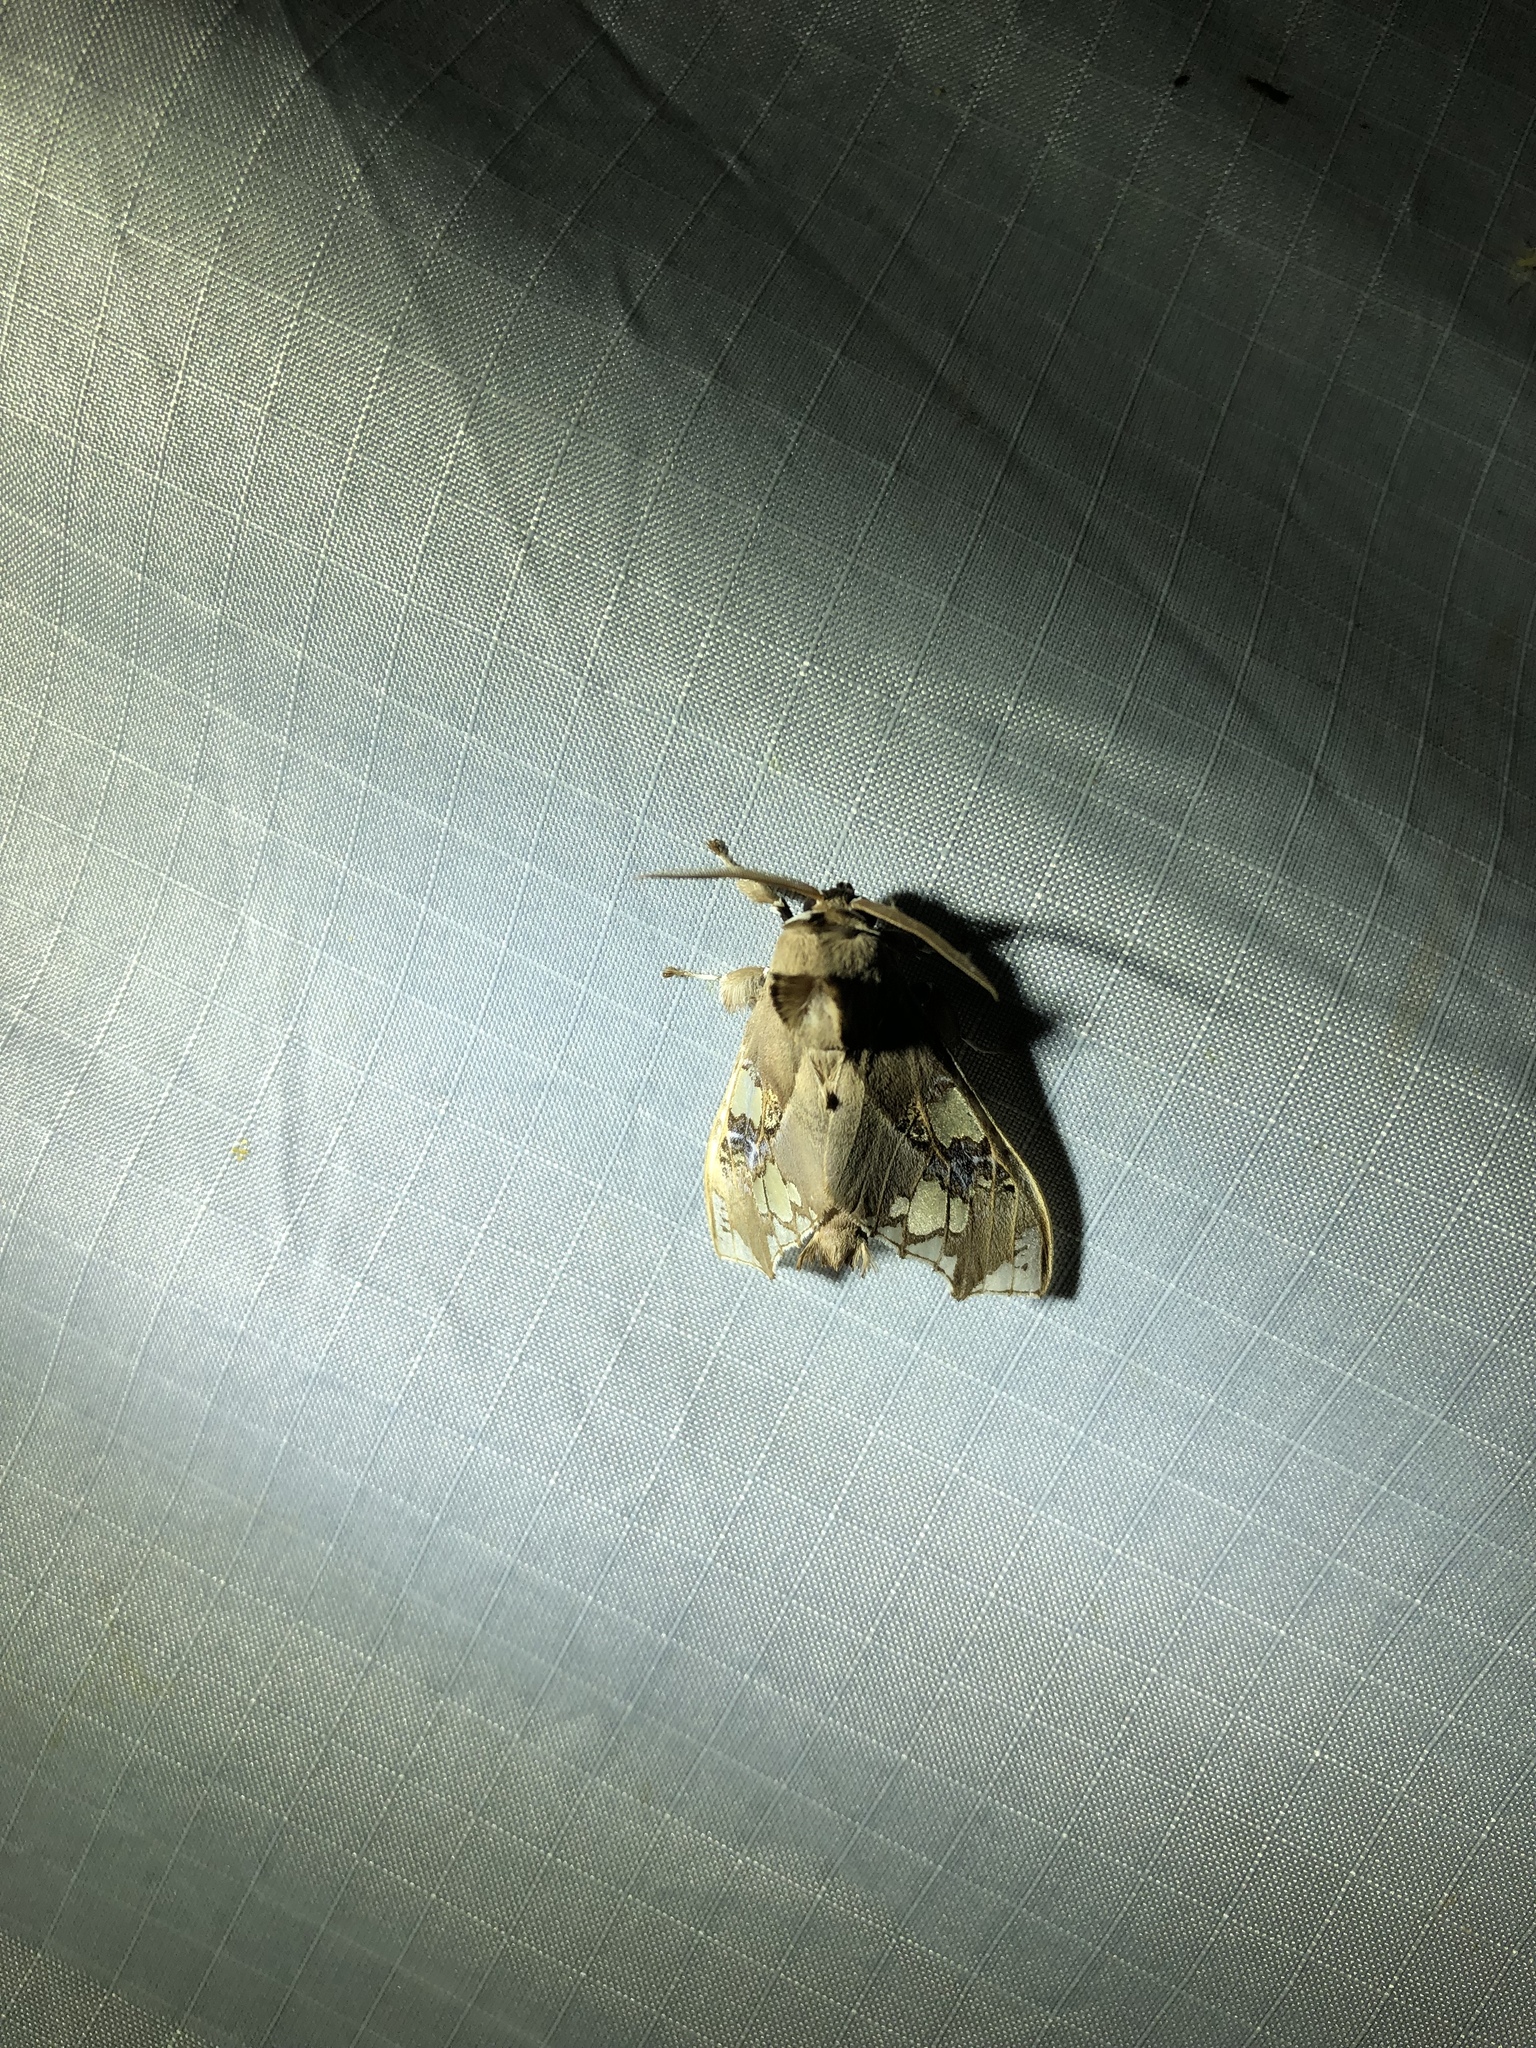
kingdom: Animalia
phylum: Arthropoda
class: Insecta
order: Lepidoptera
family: Erebidae
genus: Parathyris
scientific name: Parathyris
